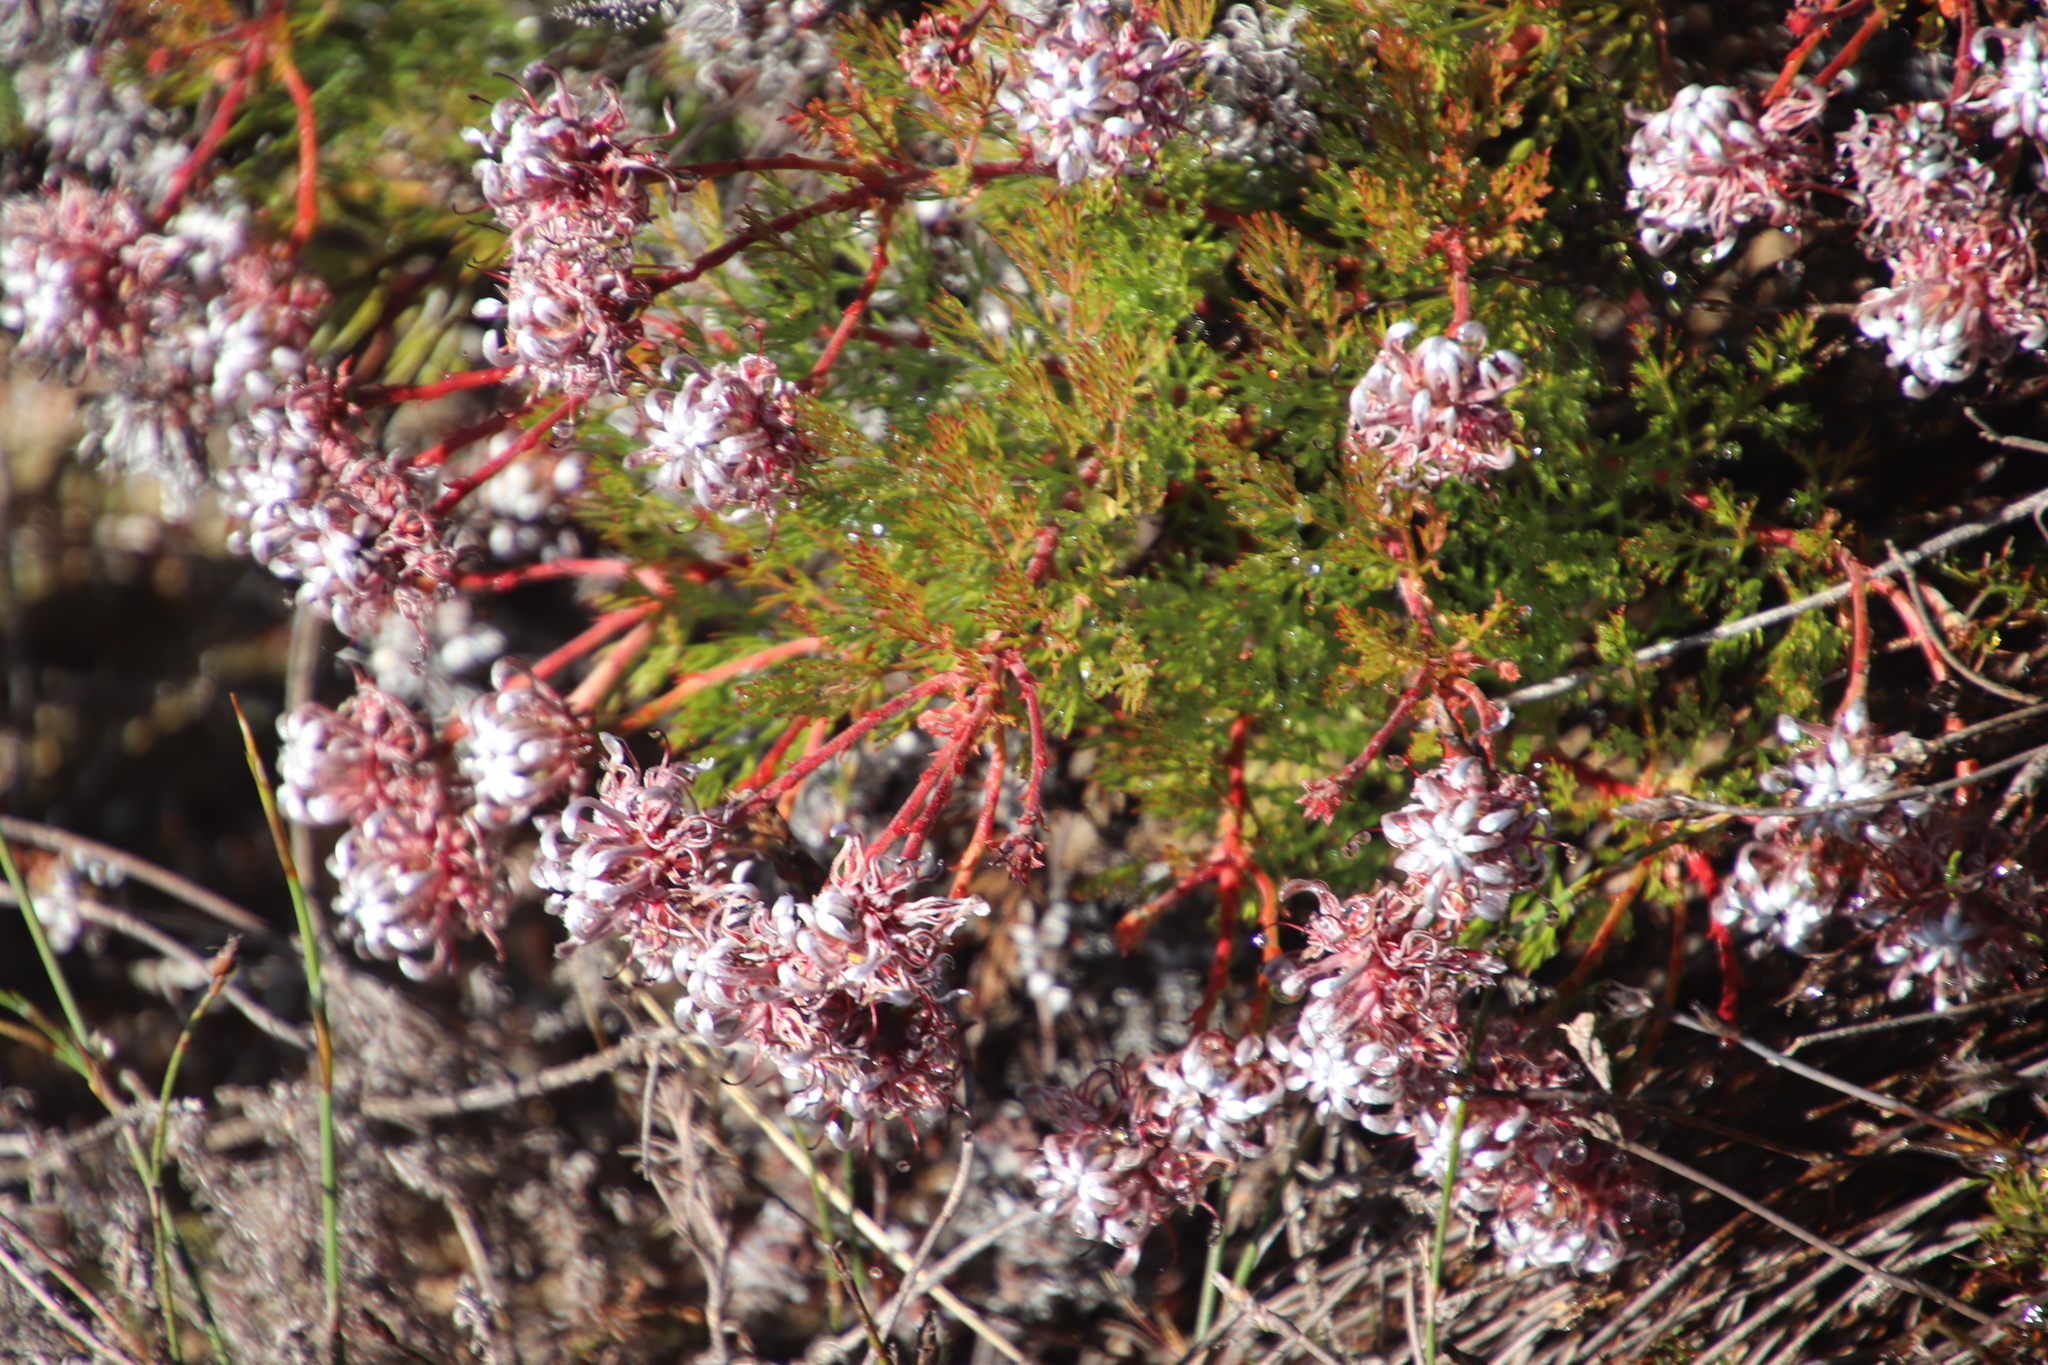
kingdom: Plantae
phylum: Tracheophyta
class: Magnoliopsida
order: Proteales
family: Proteaceae
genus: Serruria
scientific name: Serruria
